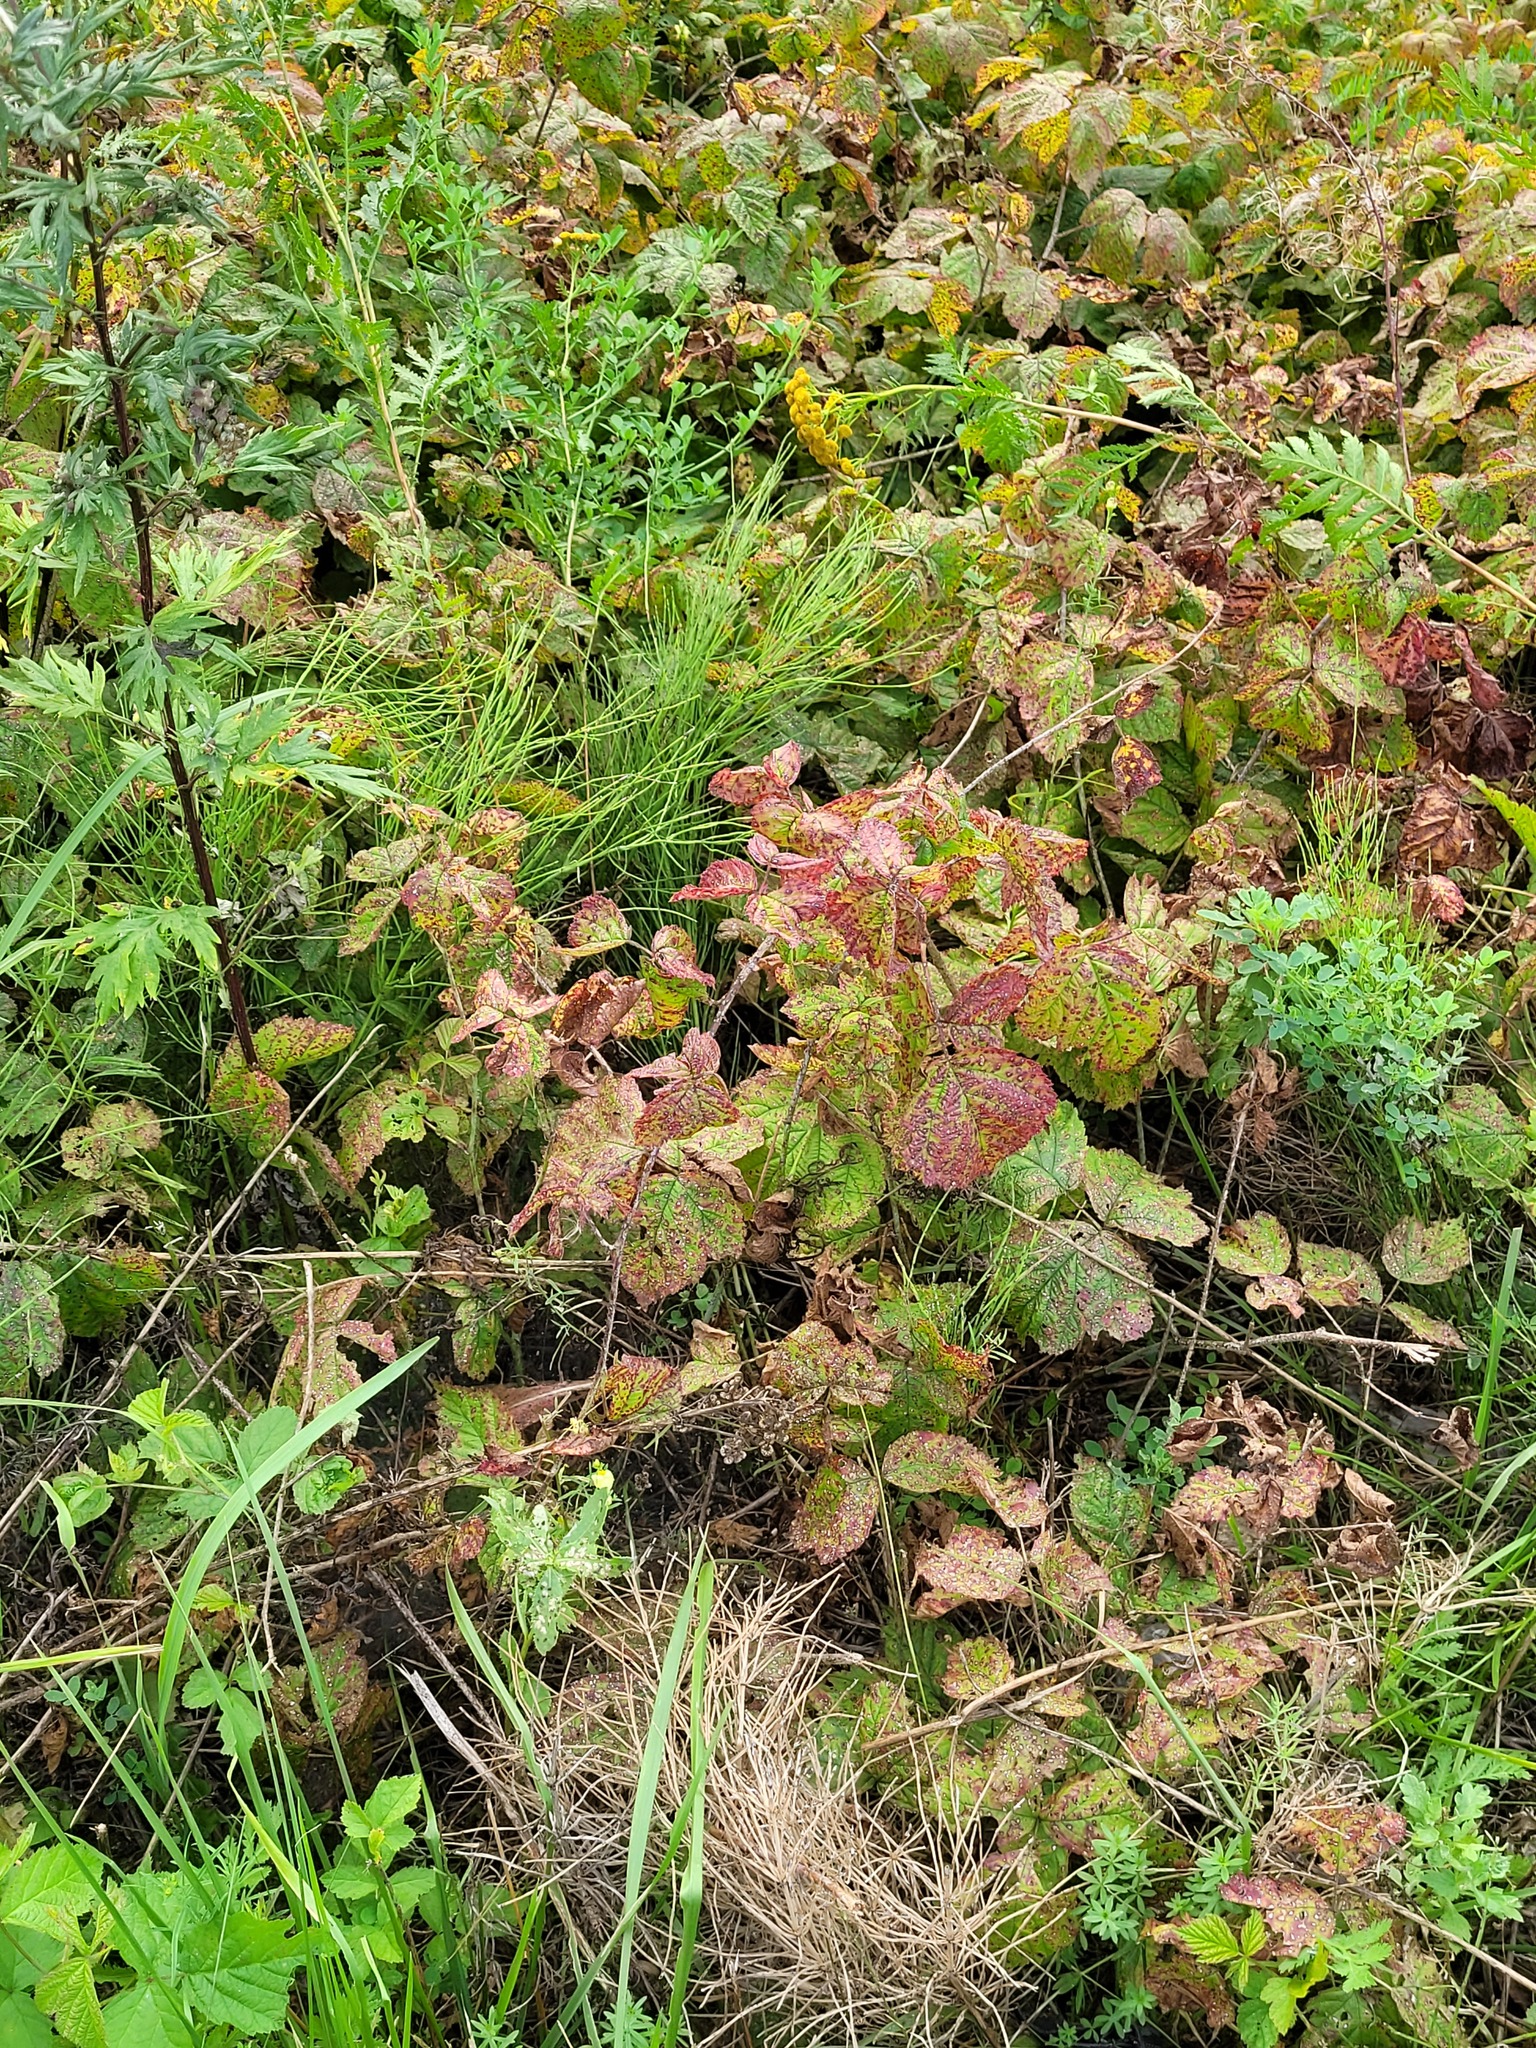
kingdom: Plantae
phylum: Tracheophyta
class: Magnoliopsida
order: Rosales
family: Rosaceae
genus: Rubus
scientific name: Rubus caesius
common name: Dewberry
